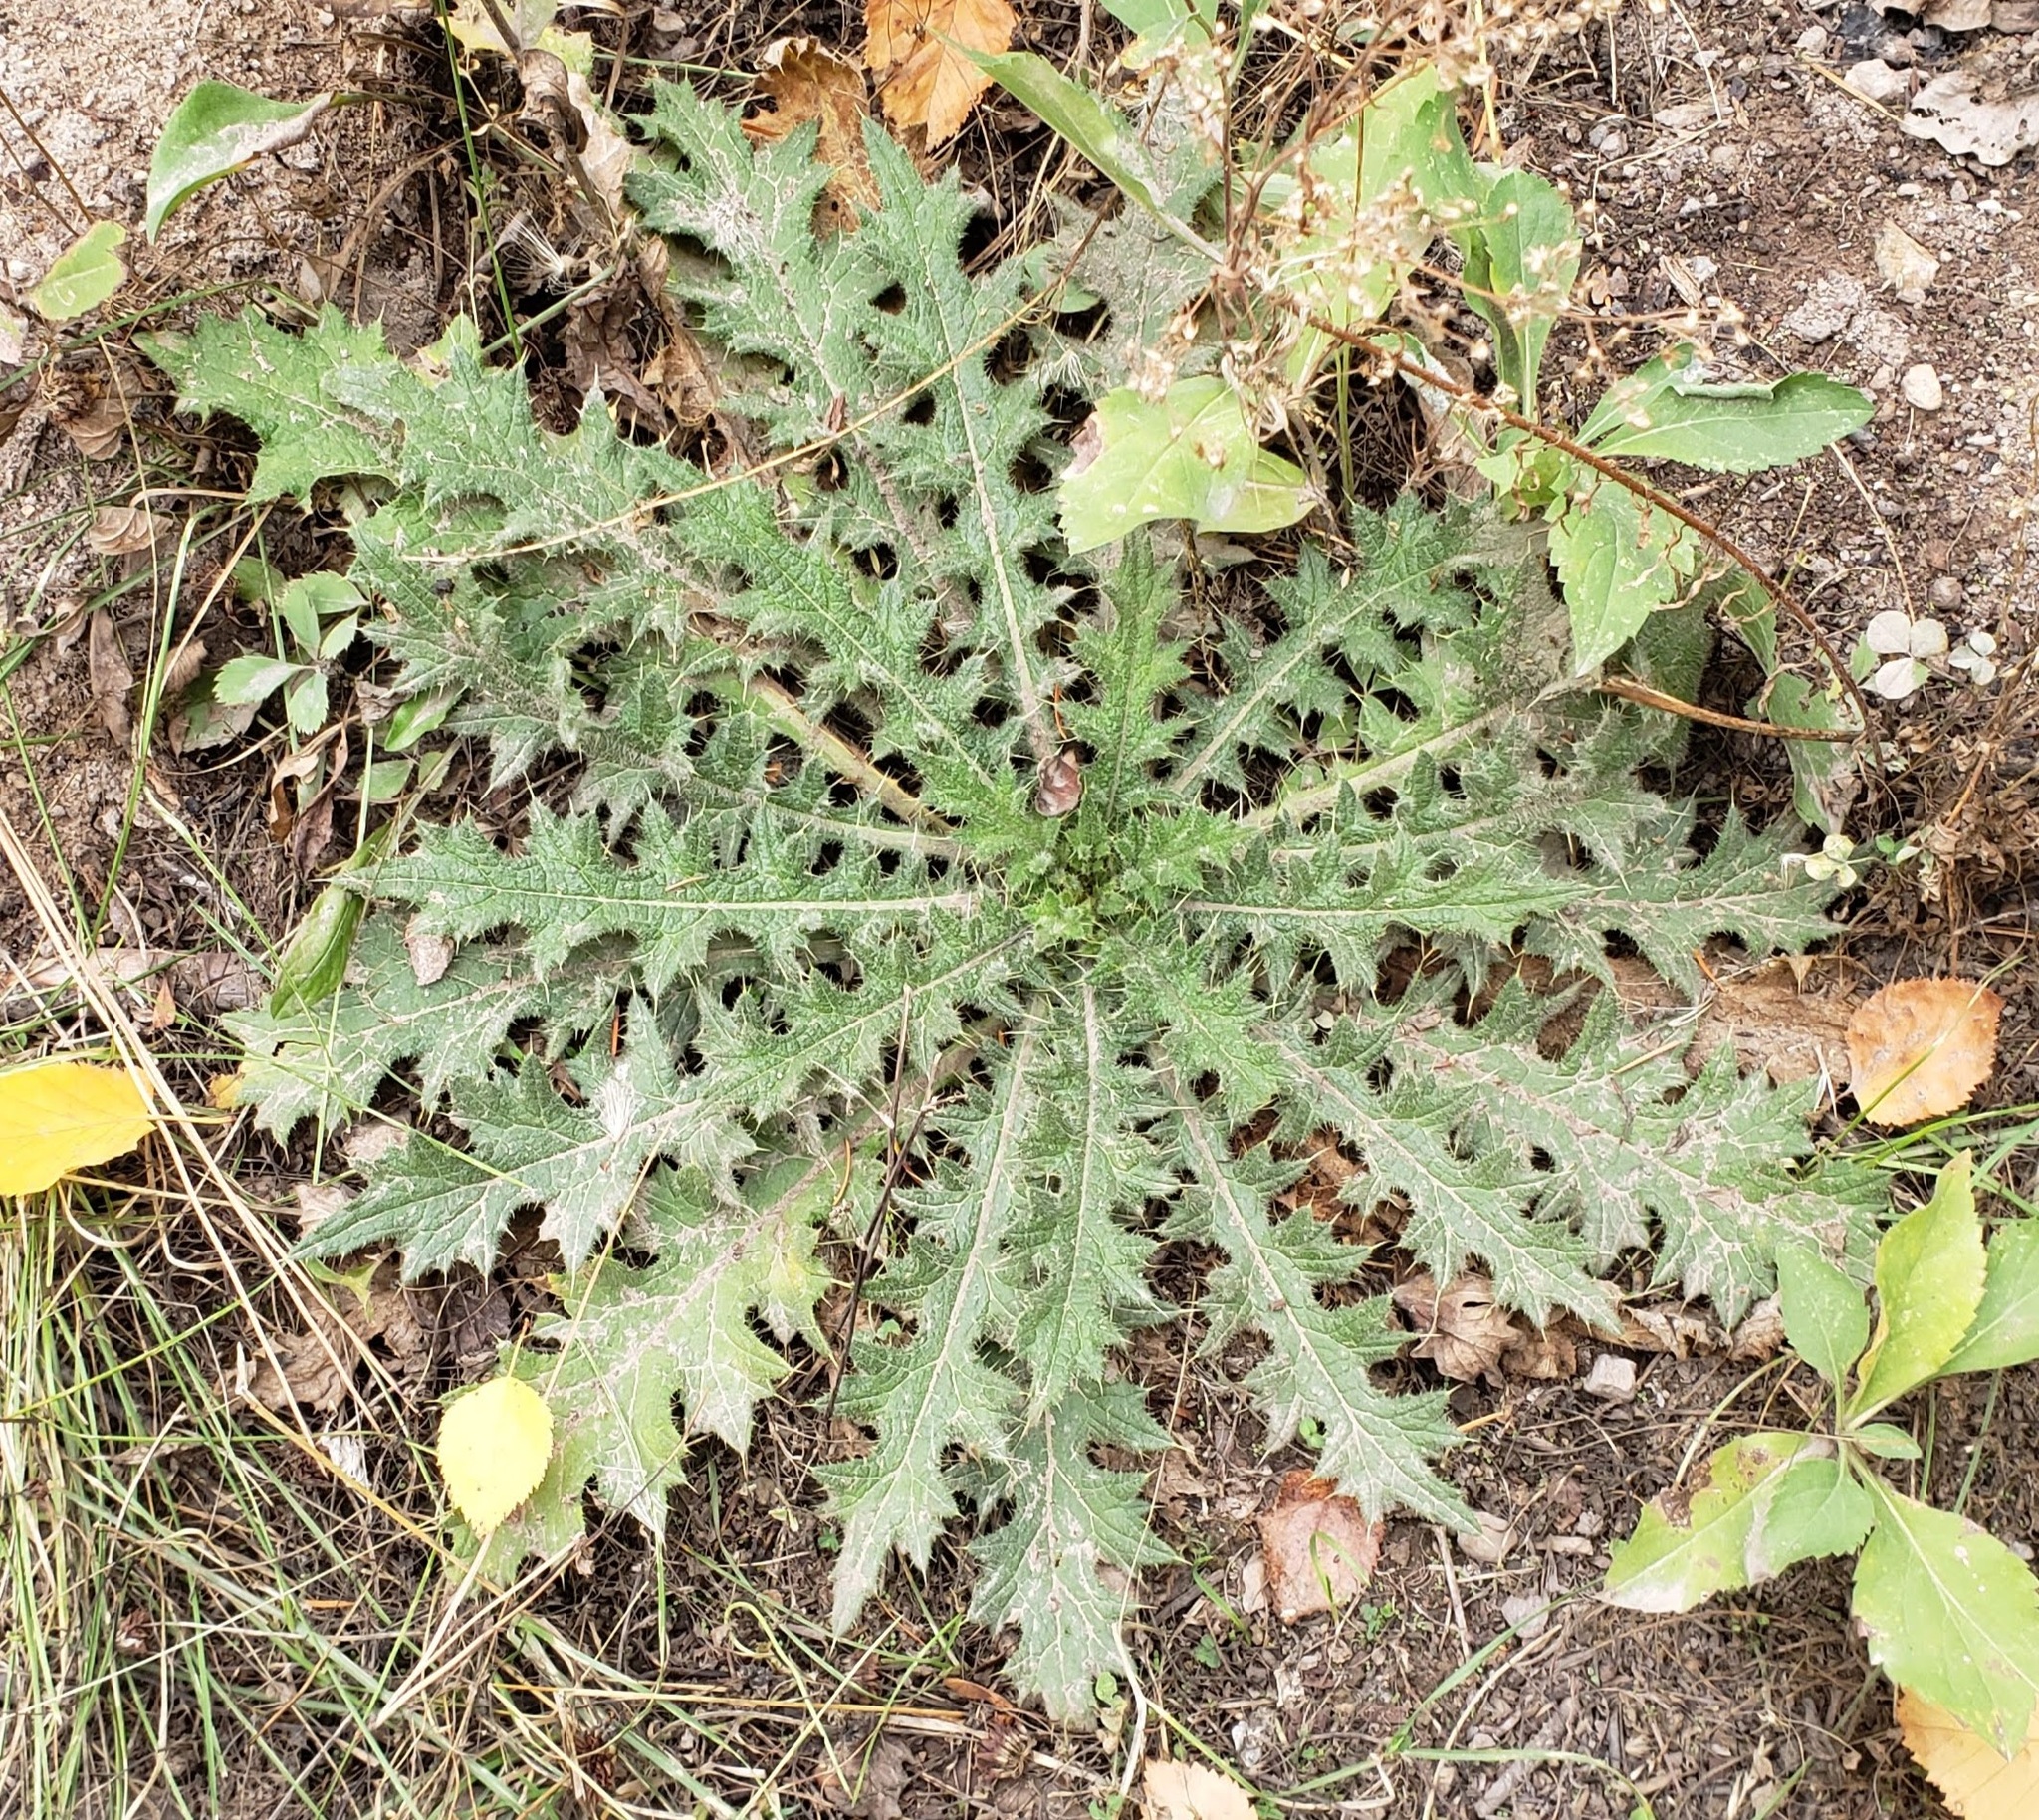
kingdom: Plantae
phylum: Tracheophyta
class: Magnoliopsida
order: Asterales
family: Asteraceae
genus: Cirsium
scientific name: Cirsium vulgare
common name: Bull thistle
